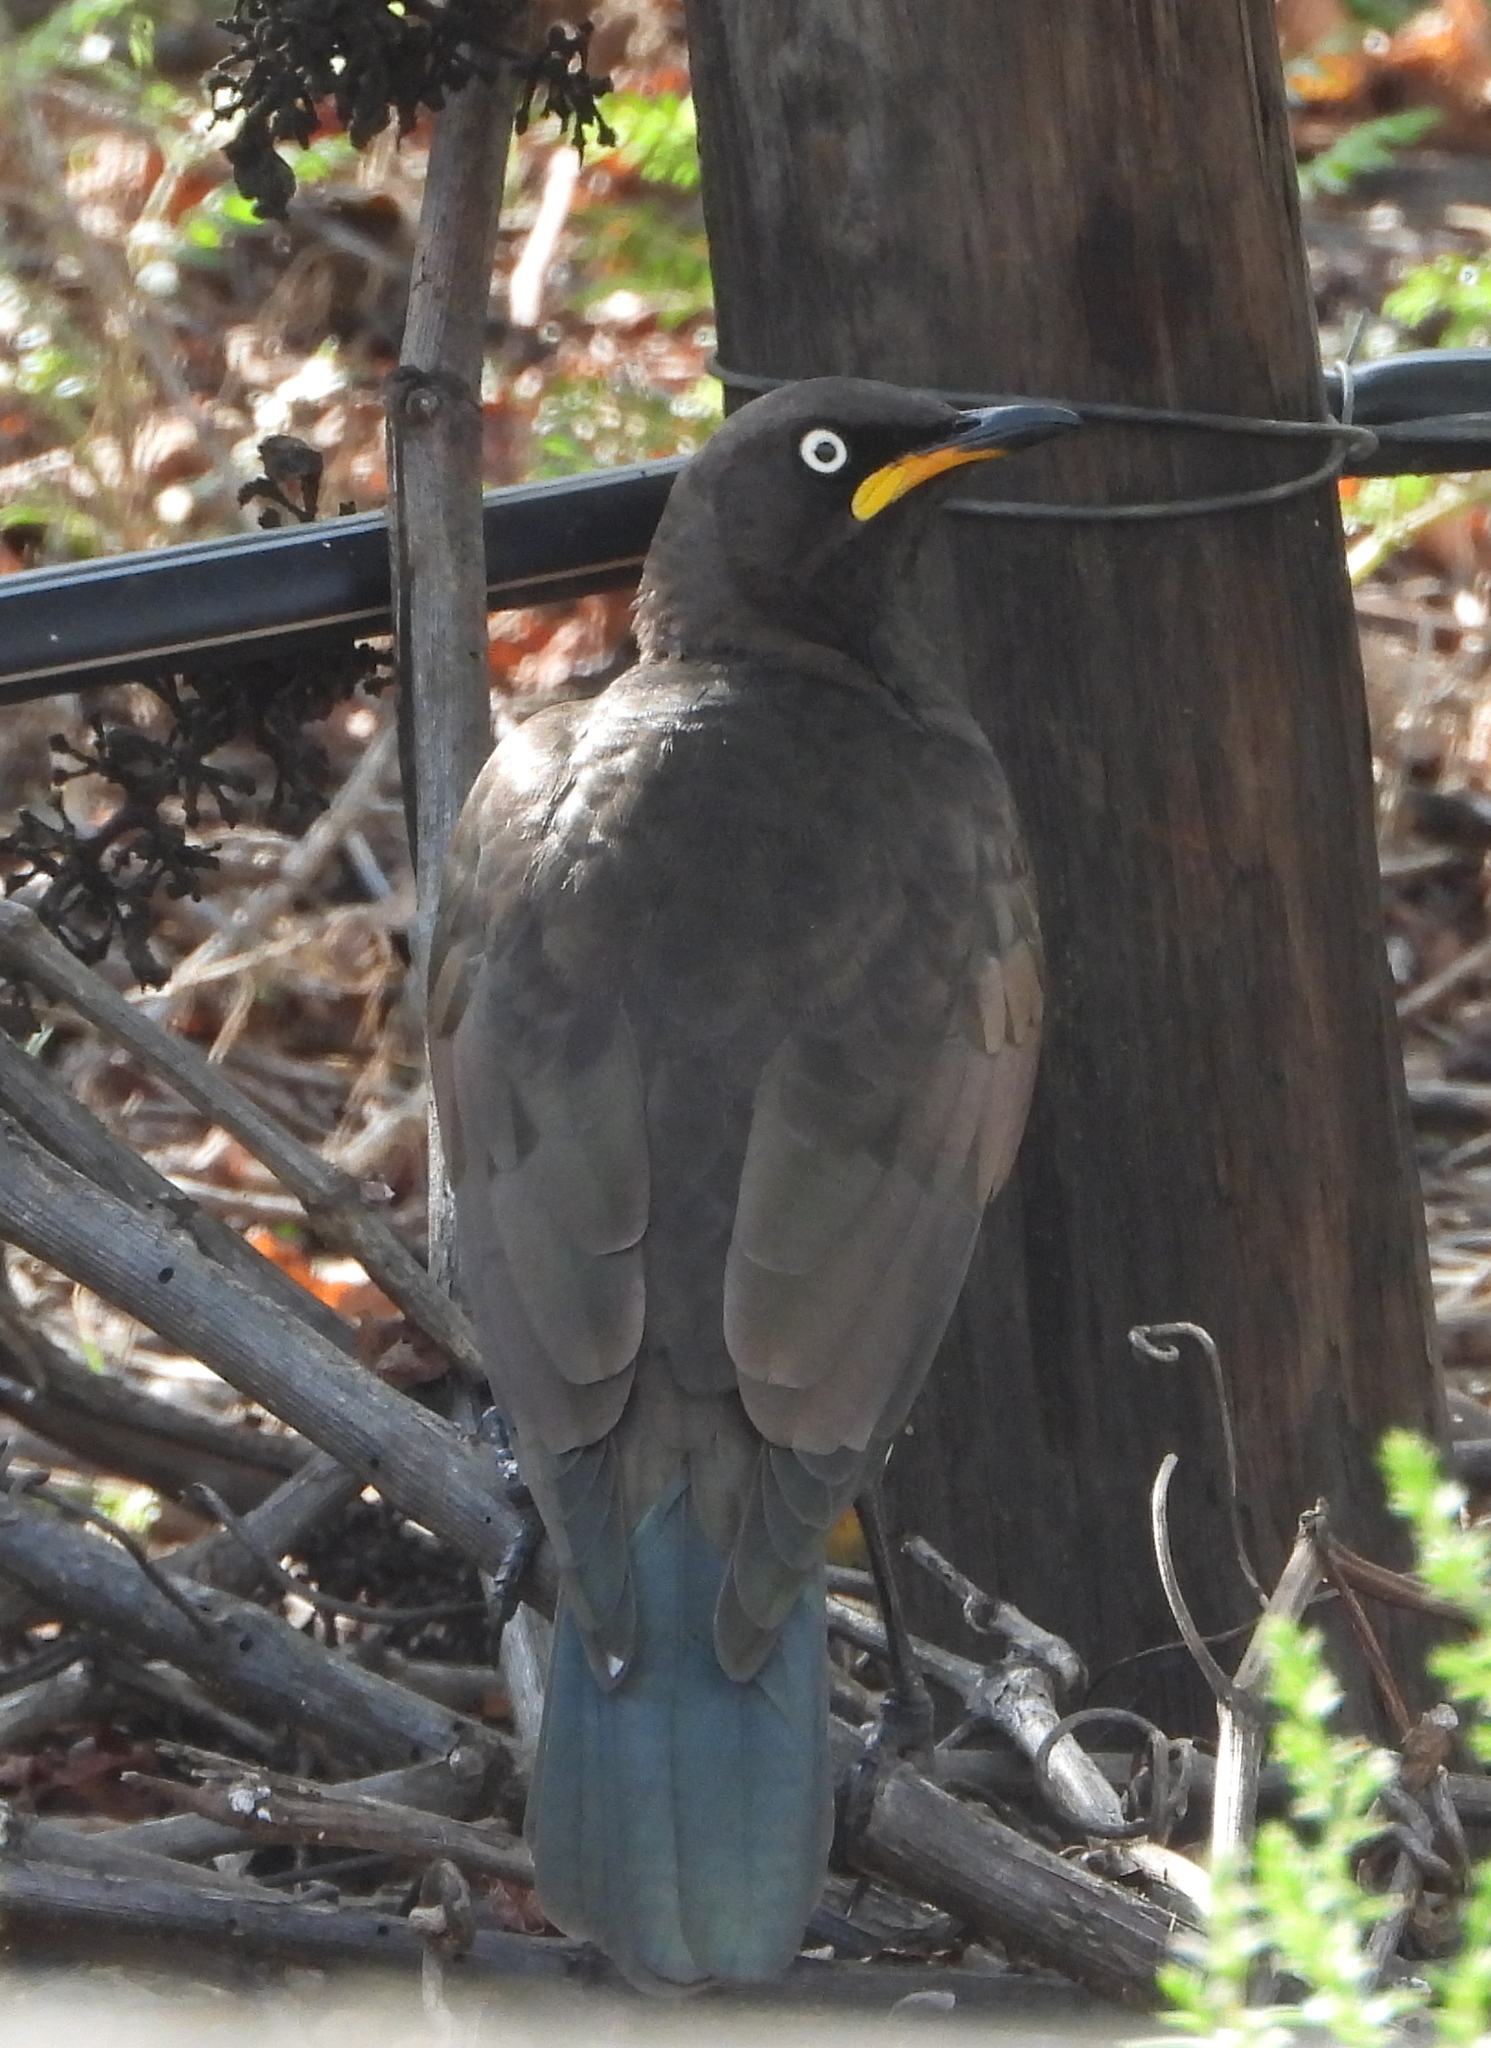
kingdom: Animalia
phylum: Chordata
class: Aves
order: Passeriformes
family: Sturnidae
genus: Lamprotornis
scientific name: Lamprotornis bicolor
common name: Pied starling
